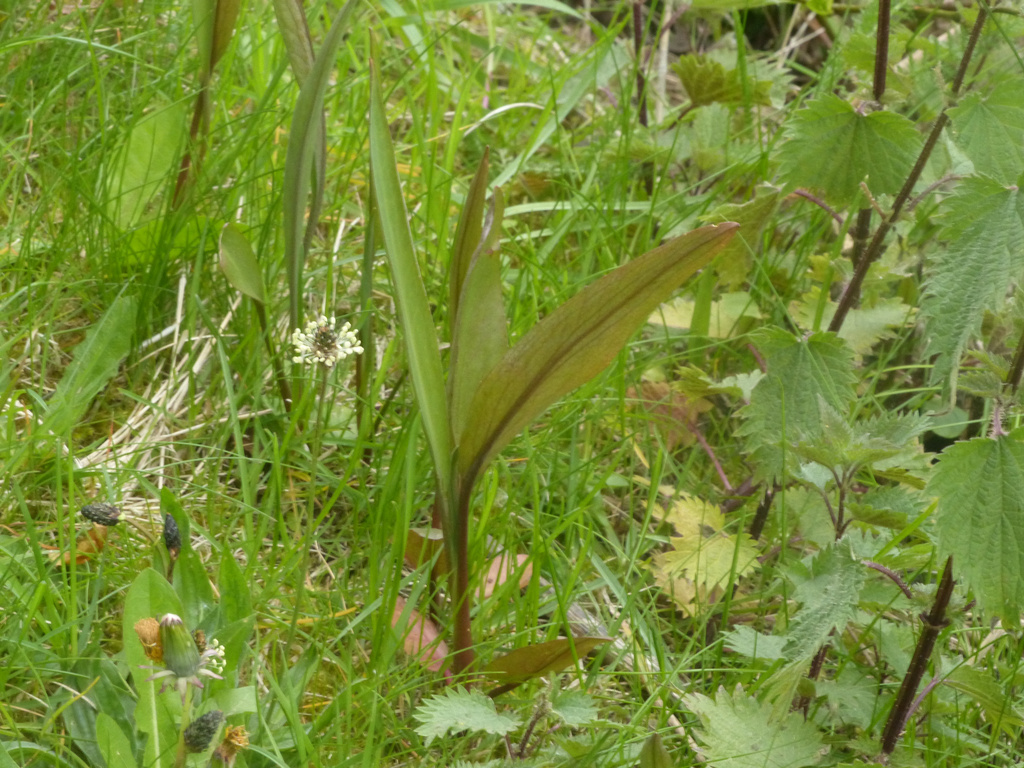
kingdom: Plantae
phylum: Tracheophyta
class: Magnoliopsida
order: Ranunculales
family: Ranunculaceae
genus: Ranunculus
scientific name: Ranunculus lingua
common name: Greater spearwort
